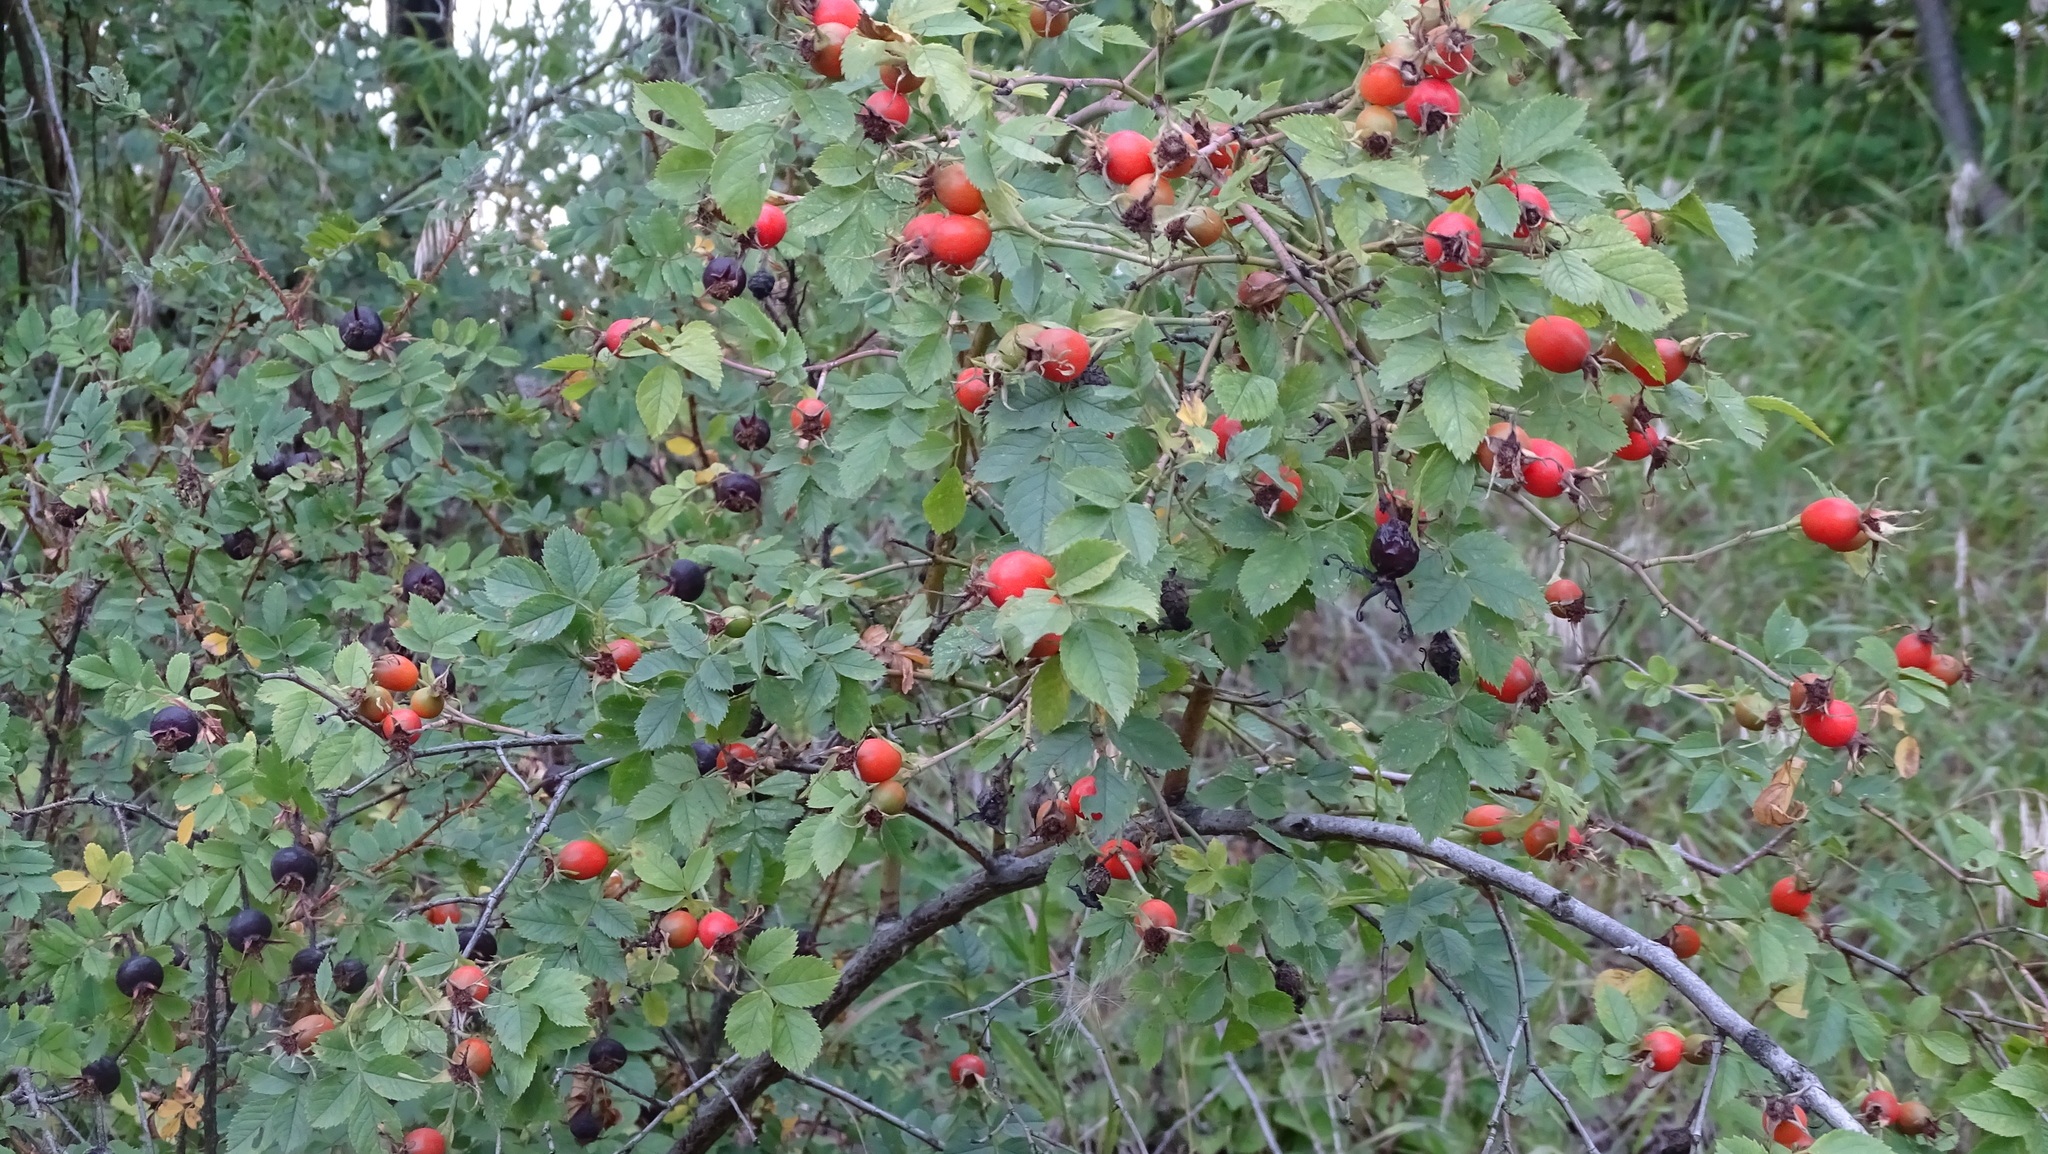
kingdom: Plantae
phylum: Tracheophyta
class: Magnoliopsida
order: Rosales
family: Rosaceae
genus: Rosa
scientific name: Rosa dumalis
